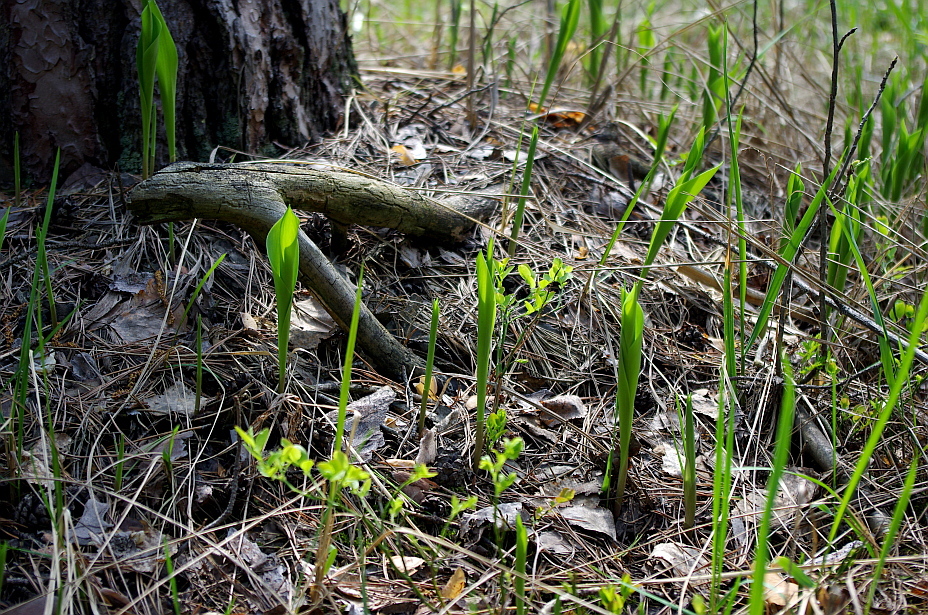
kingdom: Plantae
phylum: Tracheophyta
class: Liliopsida
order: Asparagales
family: Asparagaceae
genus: Convallaria
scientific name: Convallaria majalis
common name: Lily-of-the-valley
